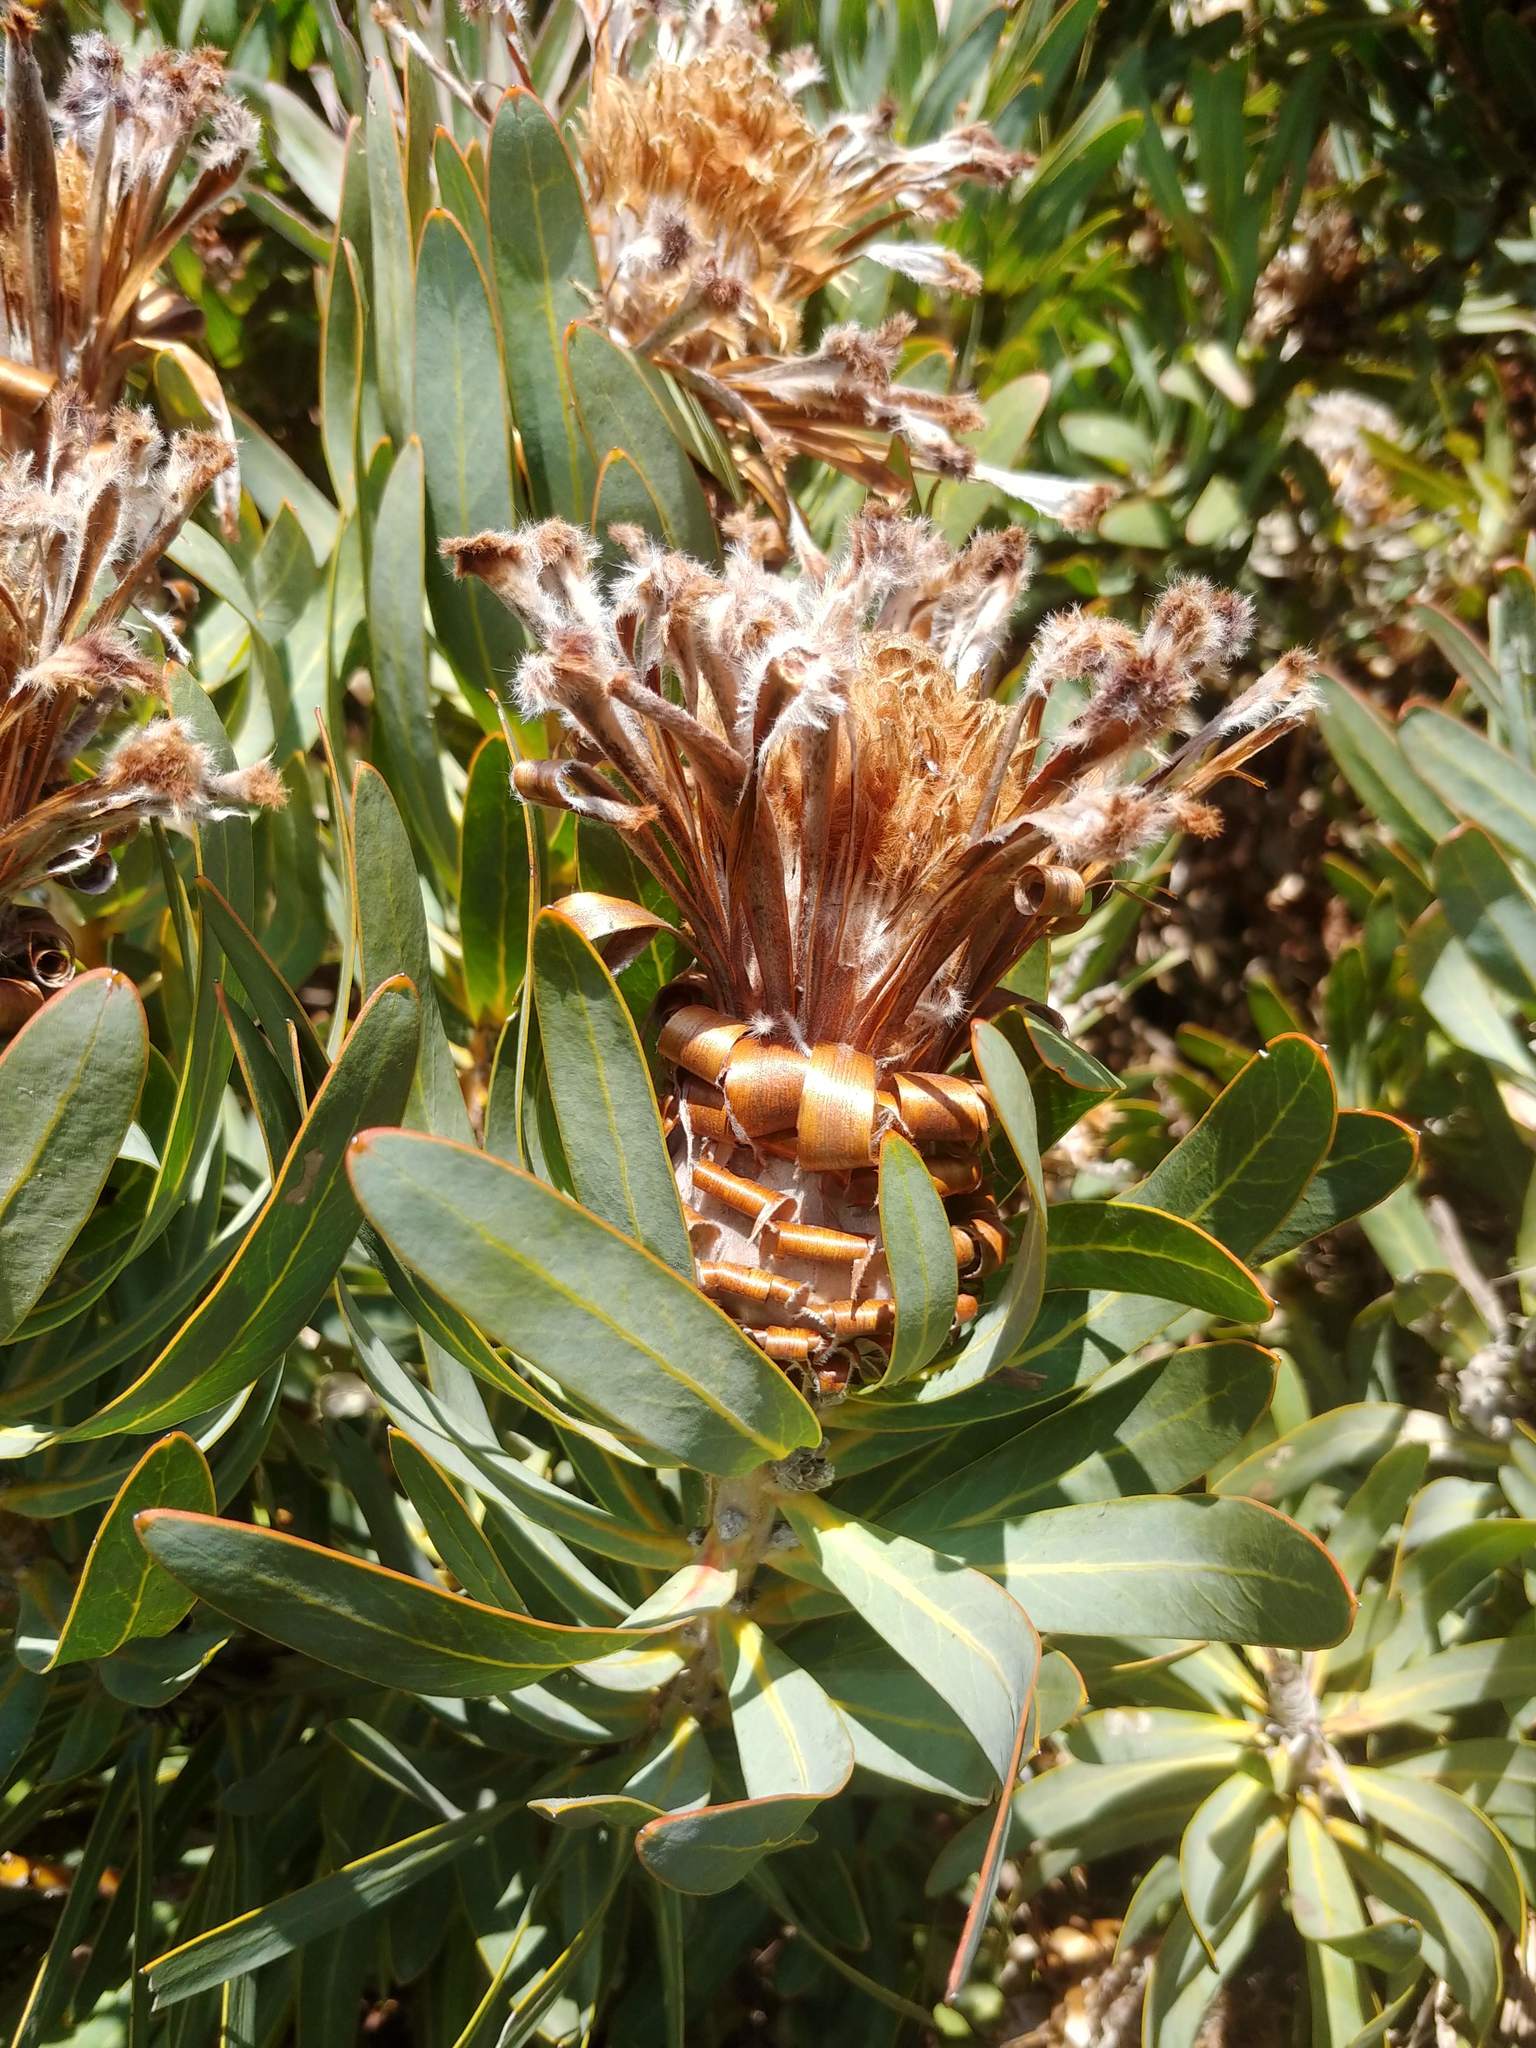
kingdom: Plantae
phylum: Tracheophyta
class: Magnoliopsida
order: Proteales
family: Proteaceae
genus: Protea
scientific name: Protea
